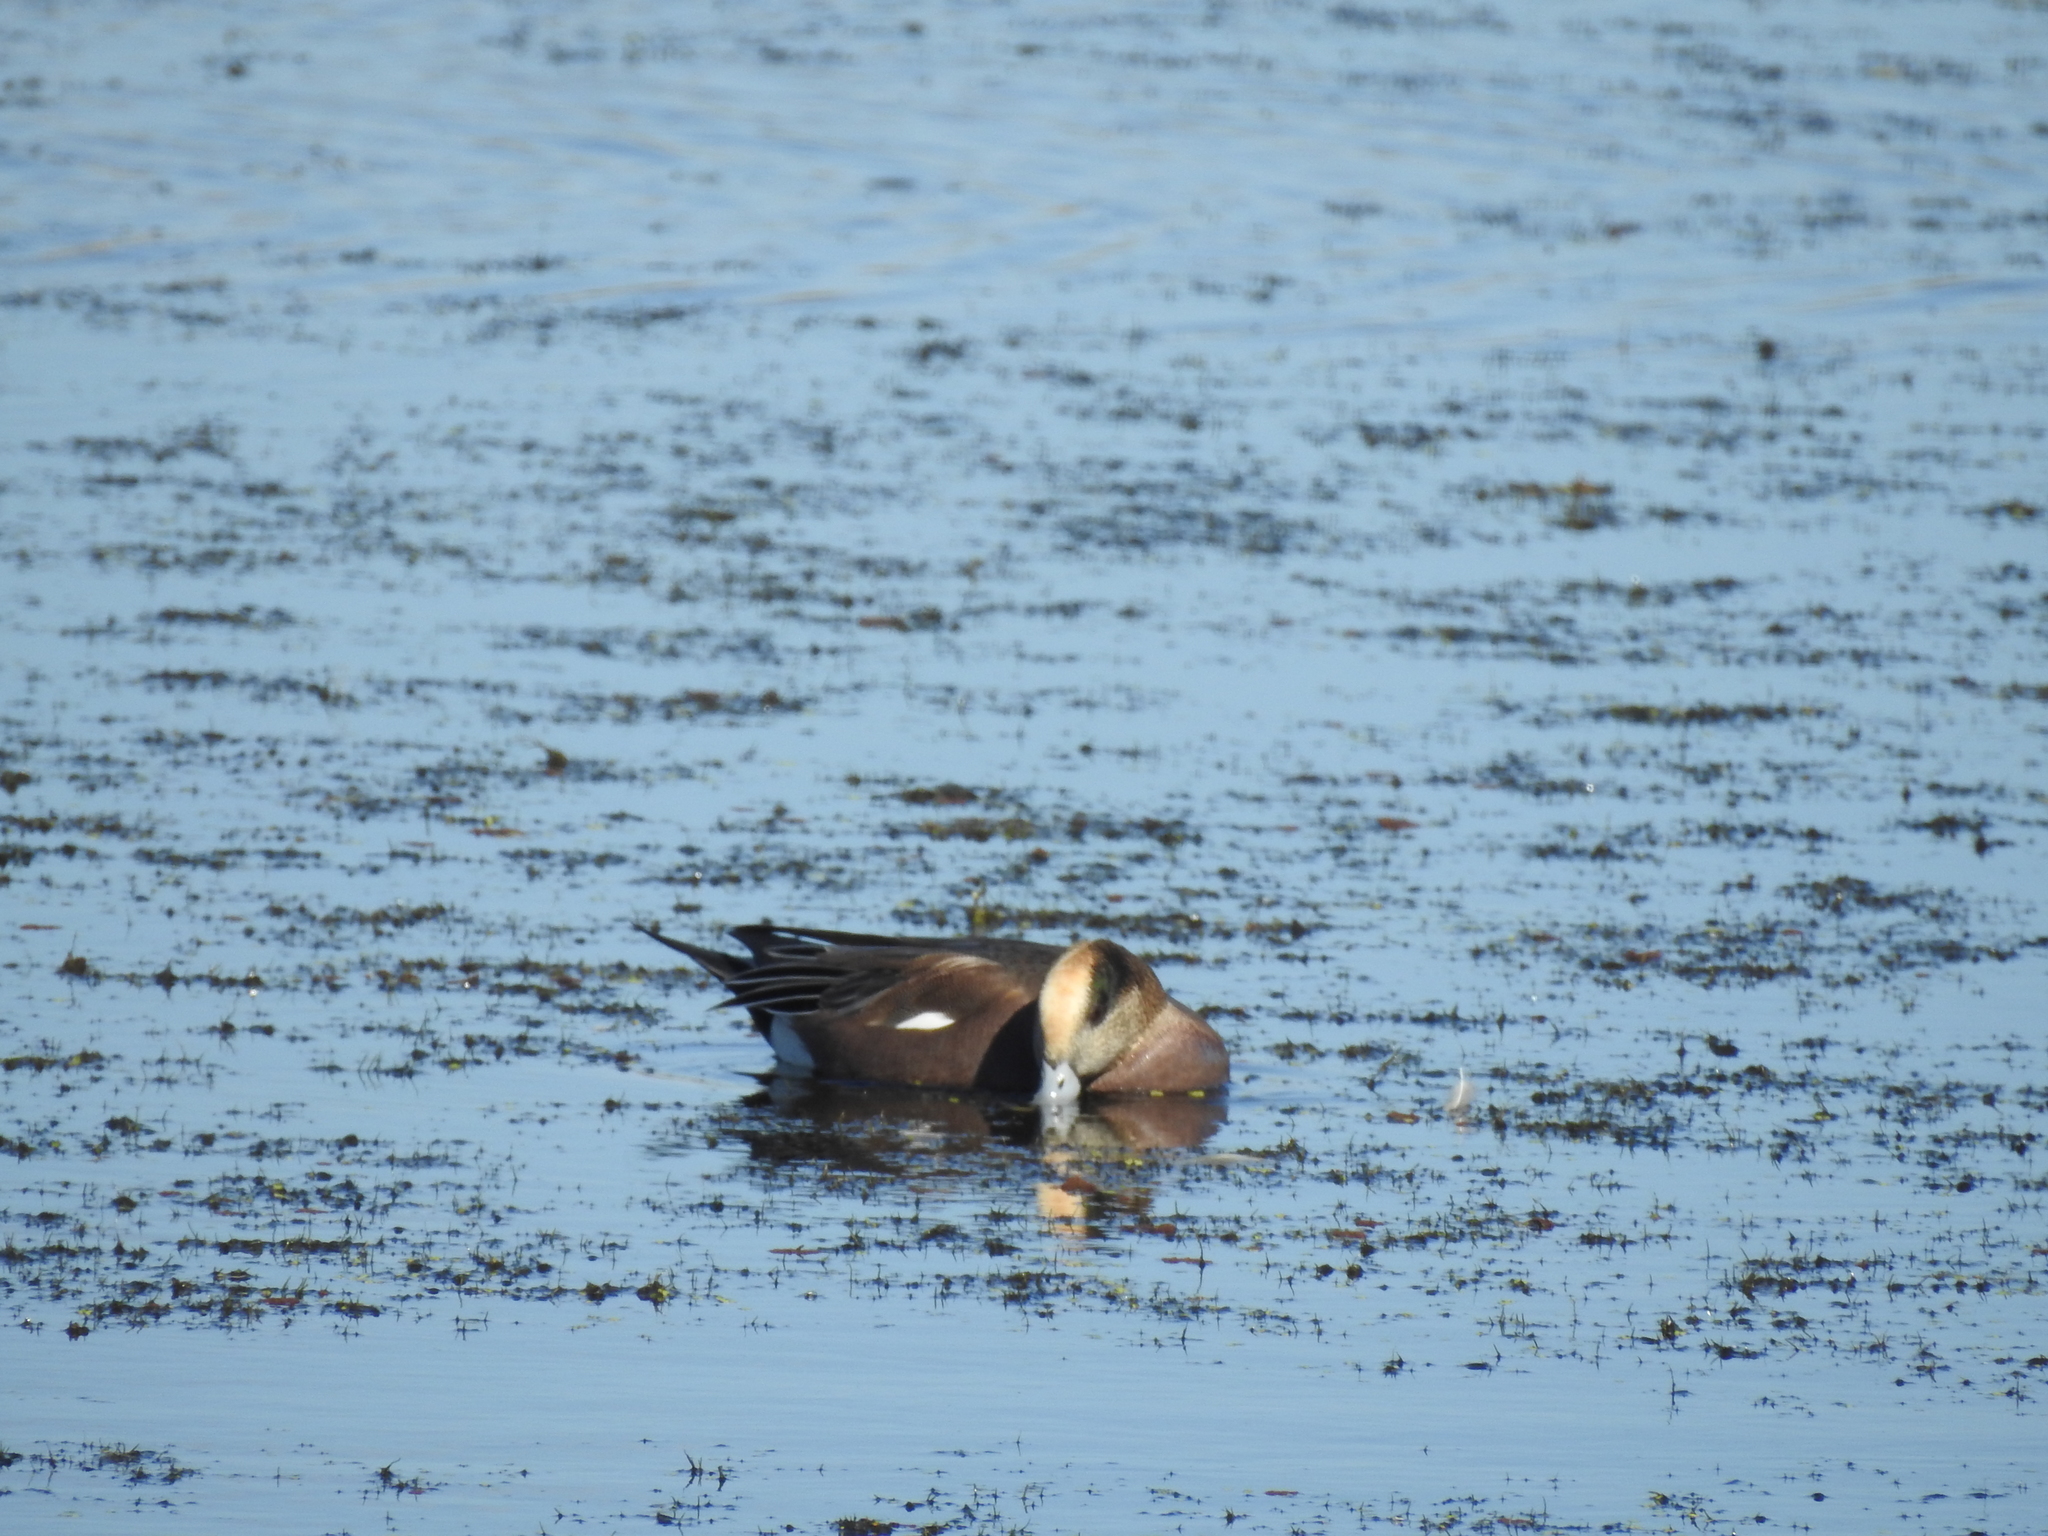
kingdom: Animalia
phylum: Chordata
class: Aves
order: Anseriformes
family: Anatidae
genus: Mareca
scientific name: Mareca americana
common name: American wigeon
